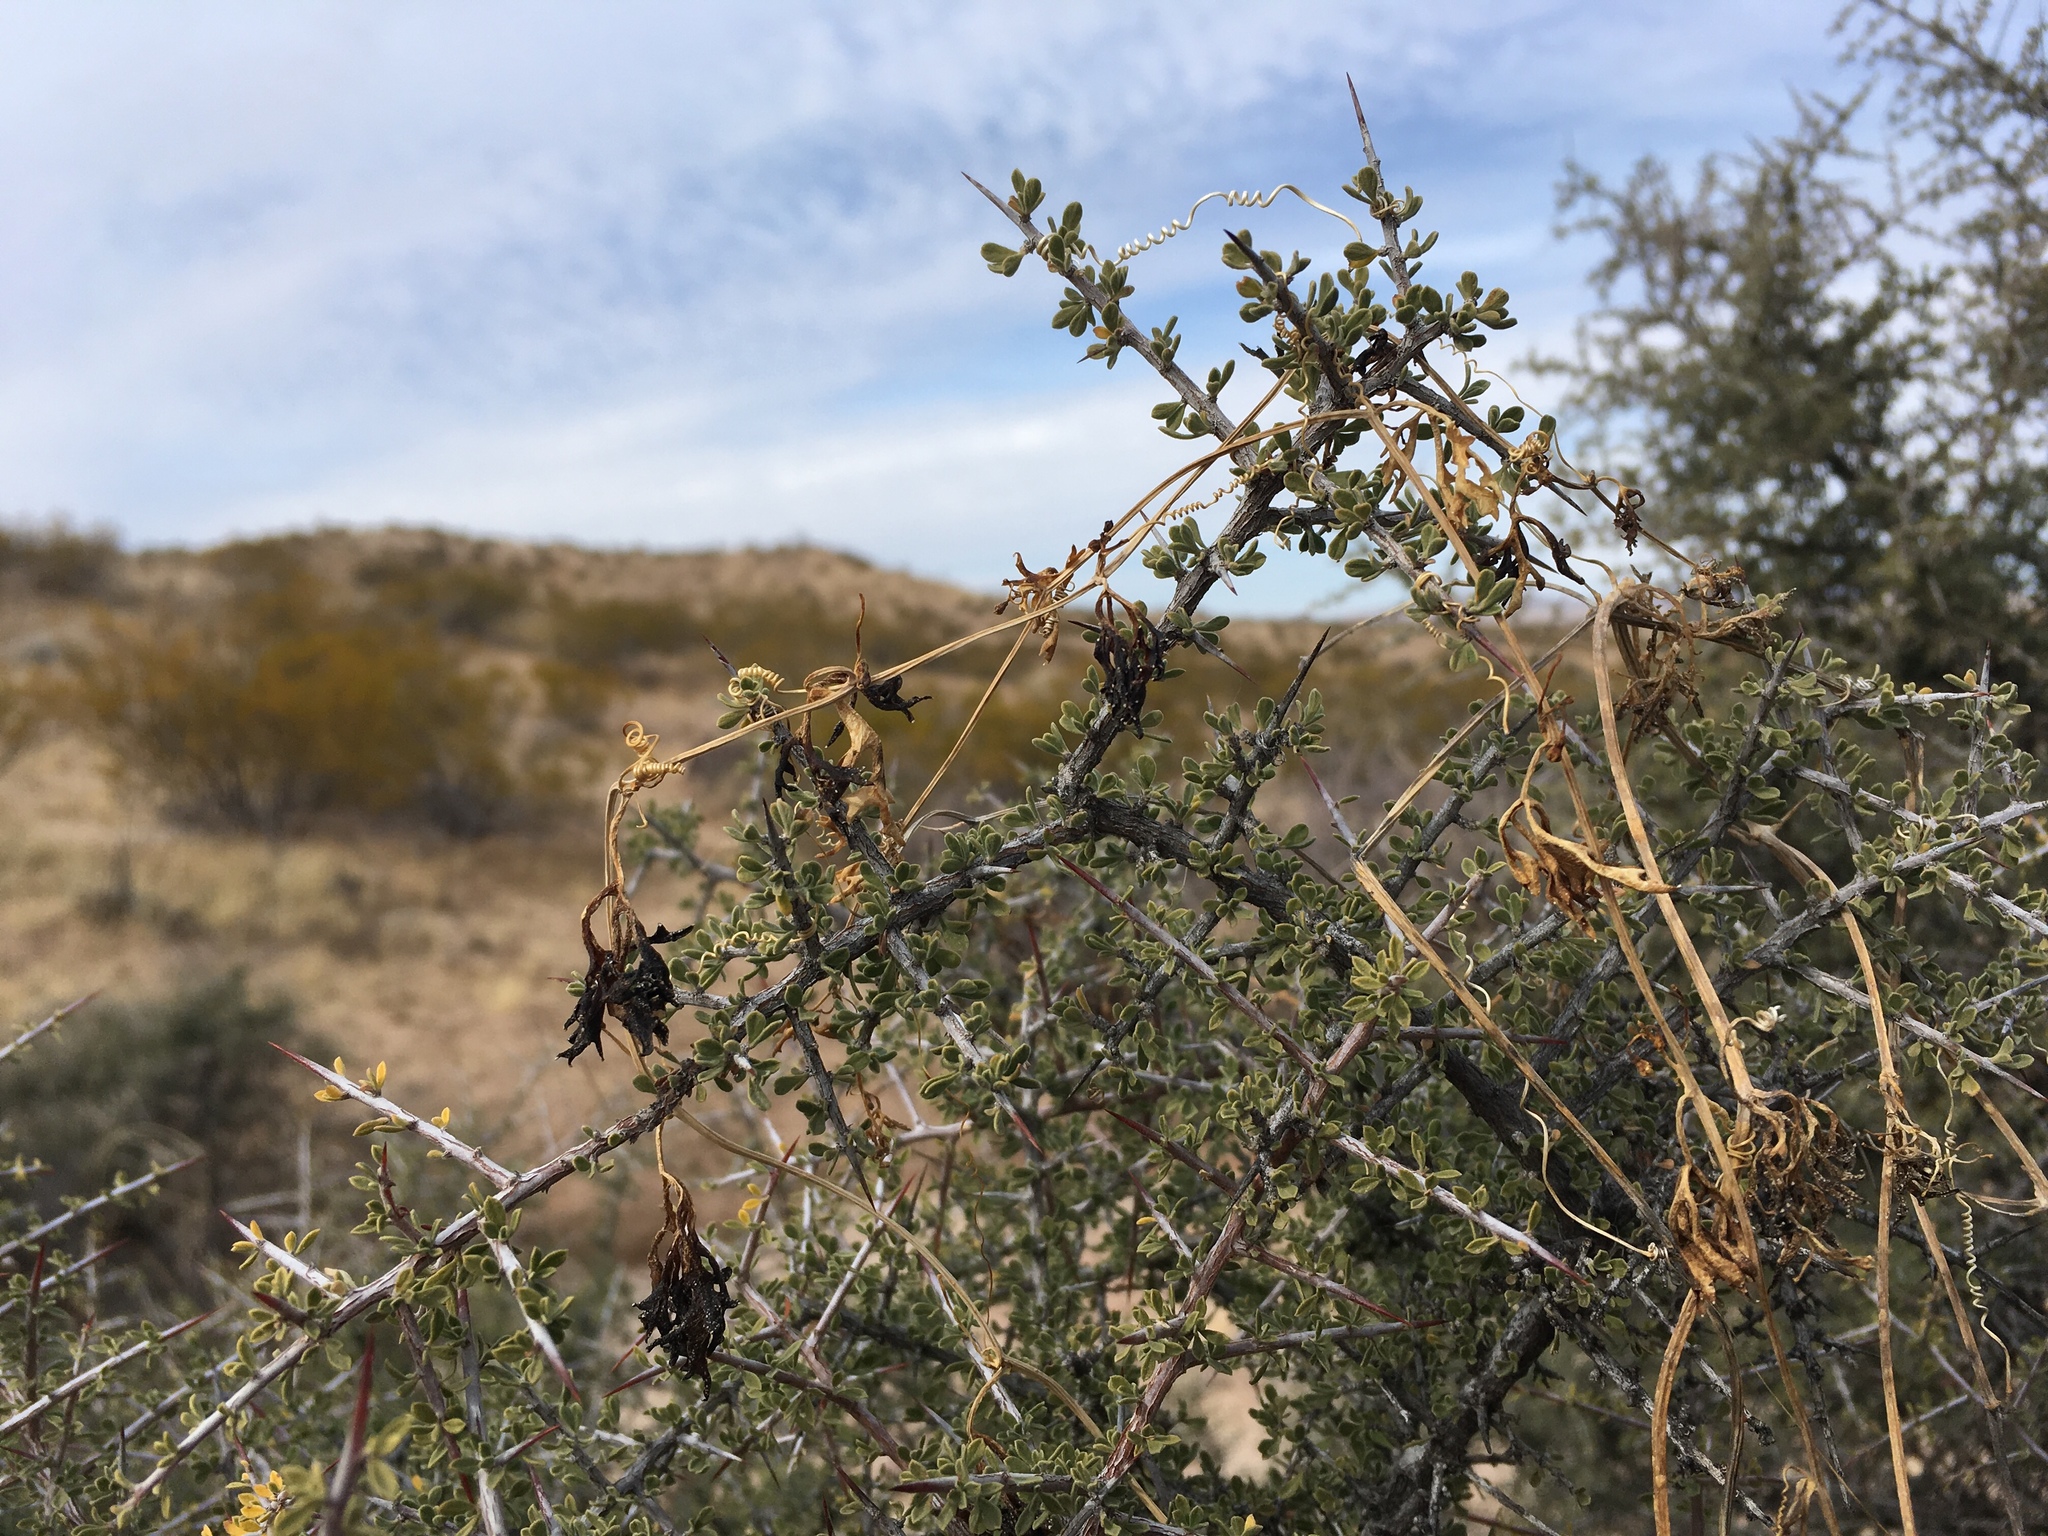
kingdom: Plantae
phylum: Tracheophyta
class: Magnoliopsida
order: Cucurbitales
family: Cucurbitaceae
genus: Ibervillea
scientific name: Ibervillea tenuisecta
